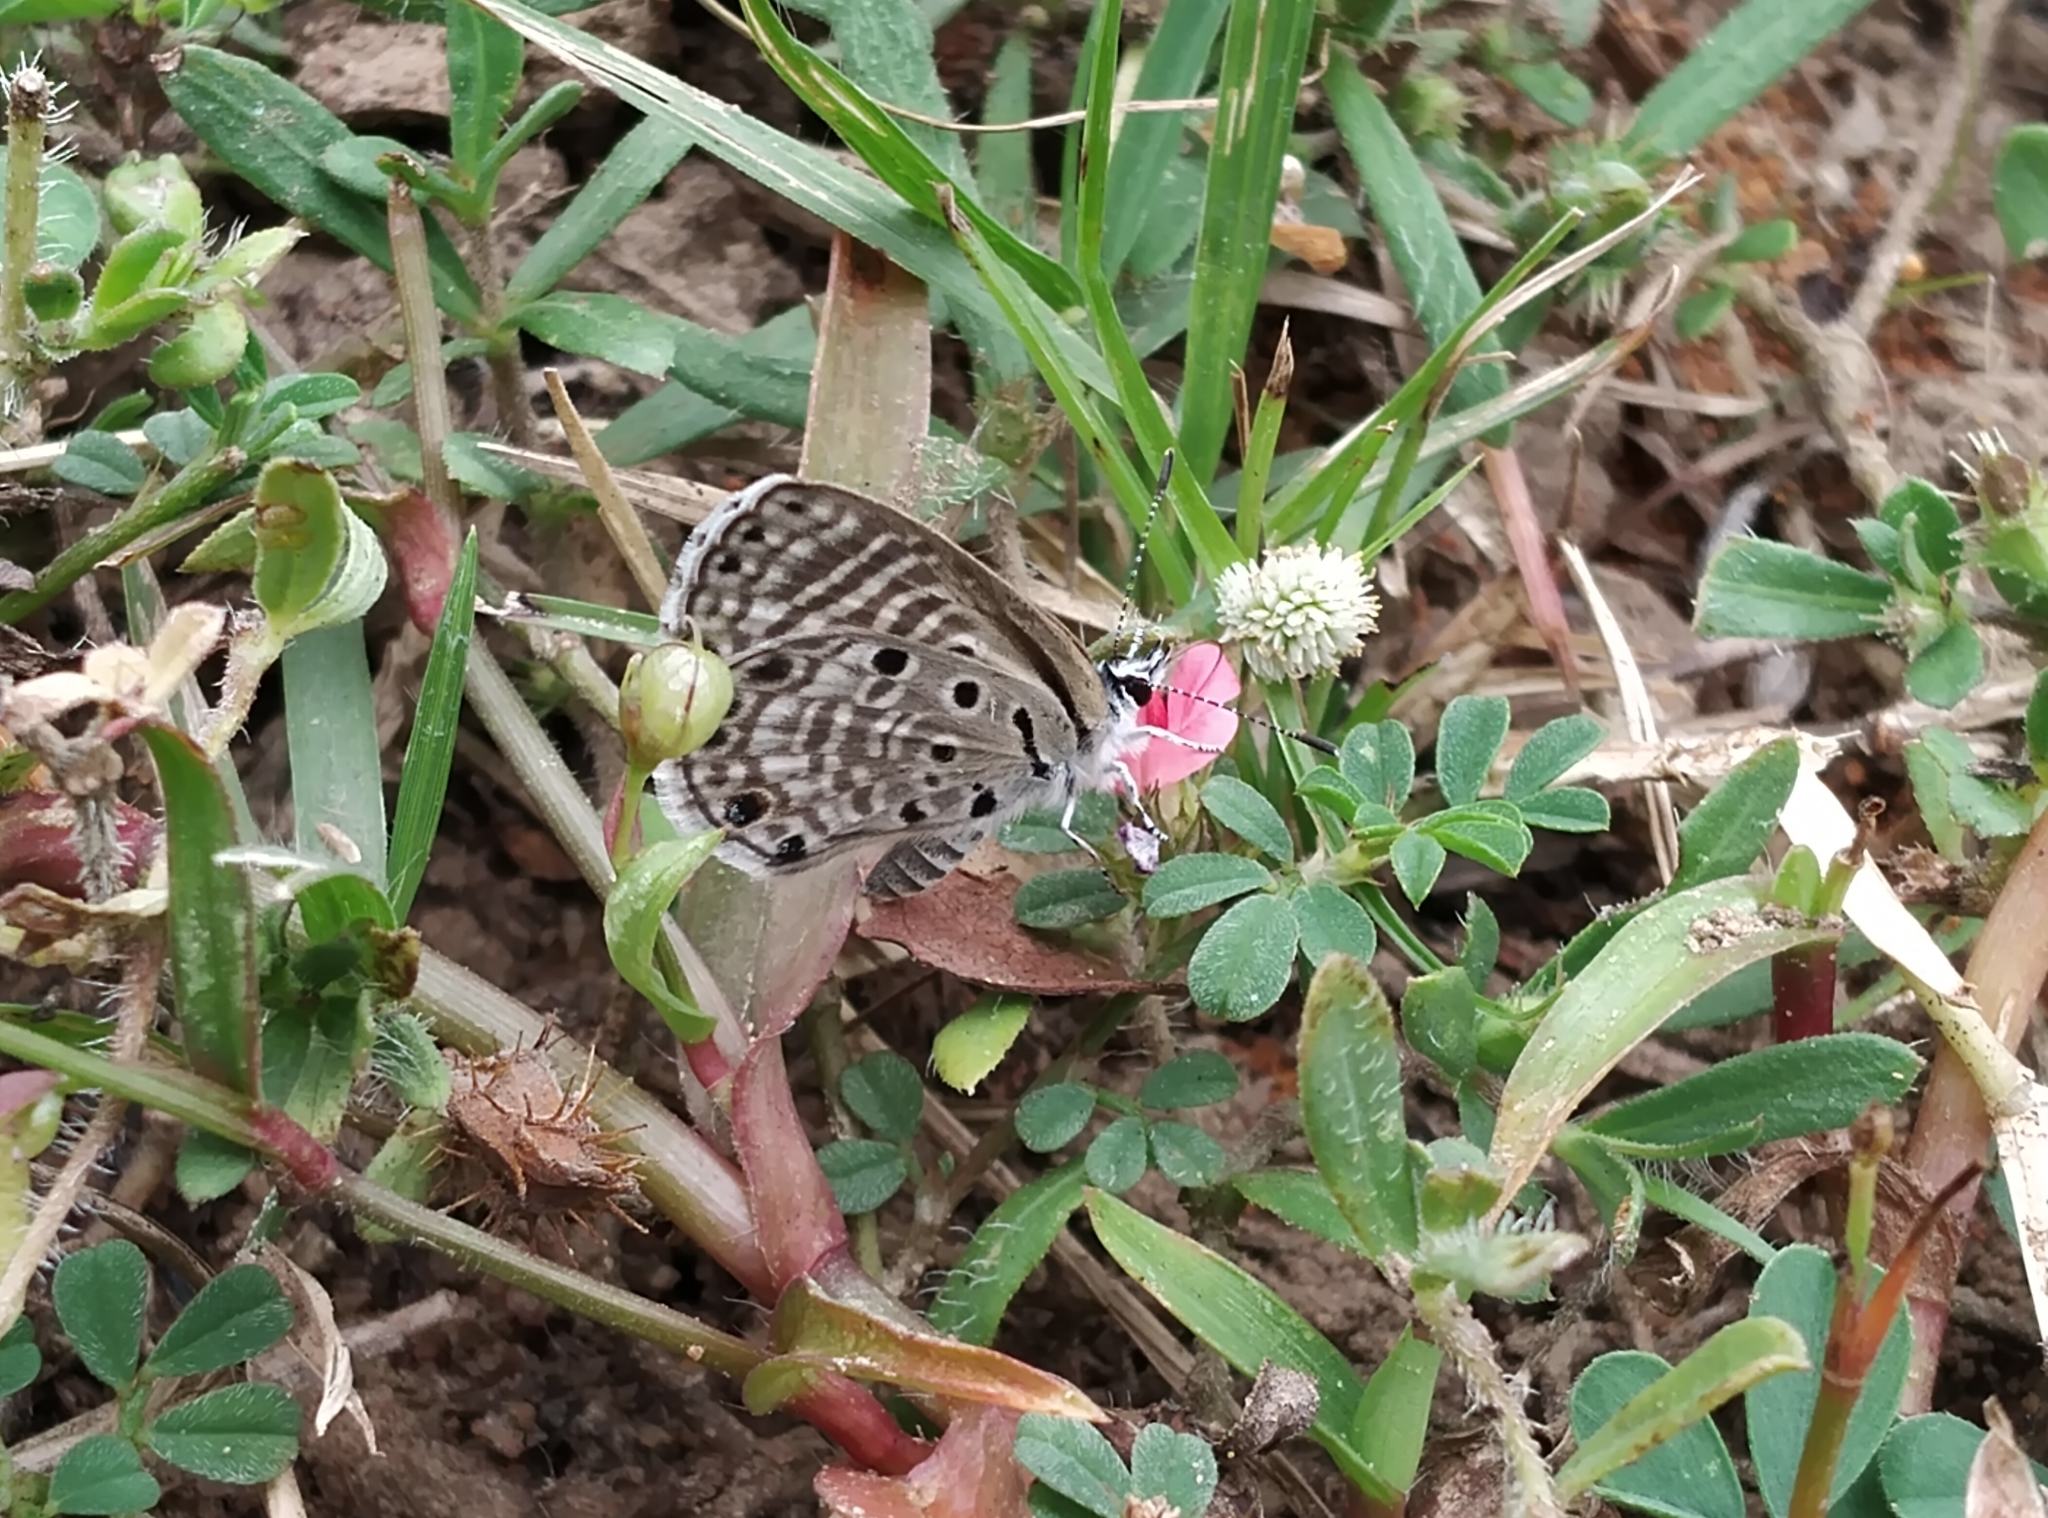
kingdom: Animalia
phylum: Arthropoda
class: Insecta
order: Lepidoptera
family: Lycaenidae
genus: Azanus
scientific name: Azanus jesous
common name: African babul blue
